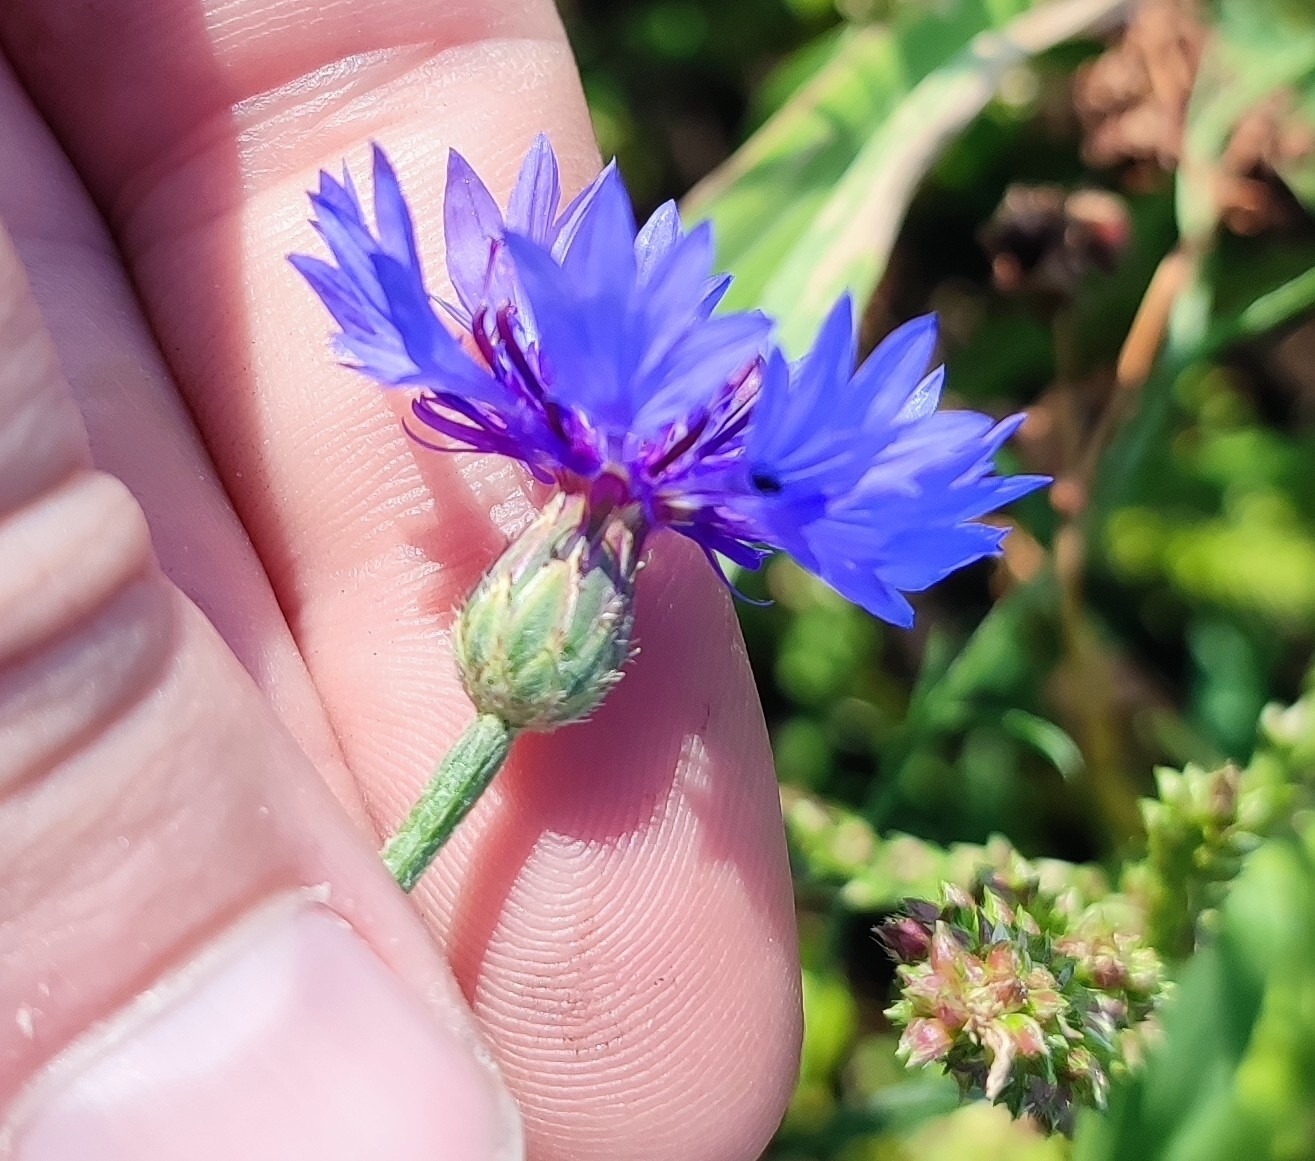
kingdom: Plantae
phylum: Tracheophyta
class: Magnoliopsida
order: Asterales
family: Asteraceae
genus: Centaurea
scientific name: Centaurea cyanus
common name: Cornflower
